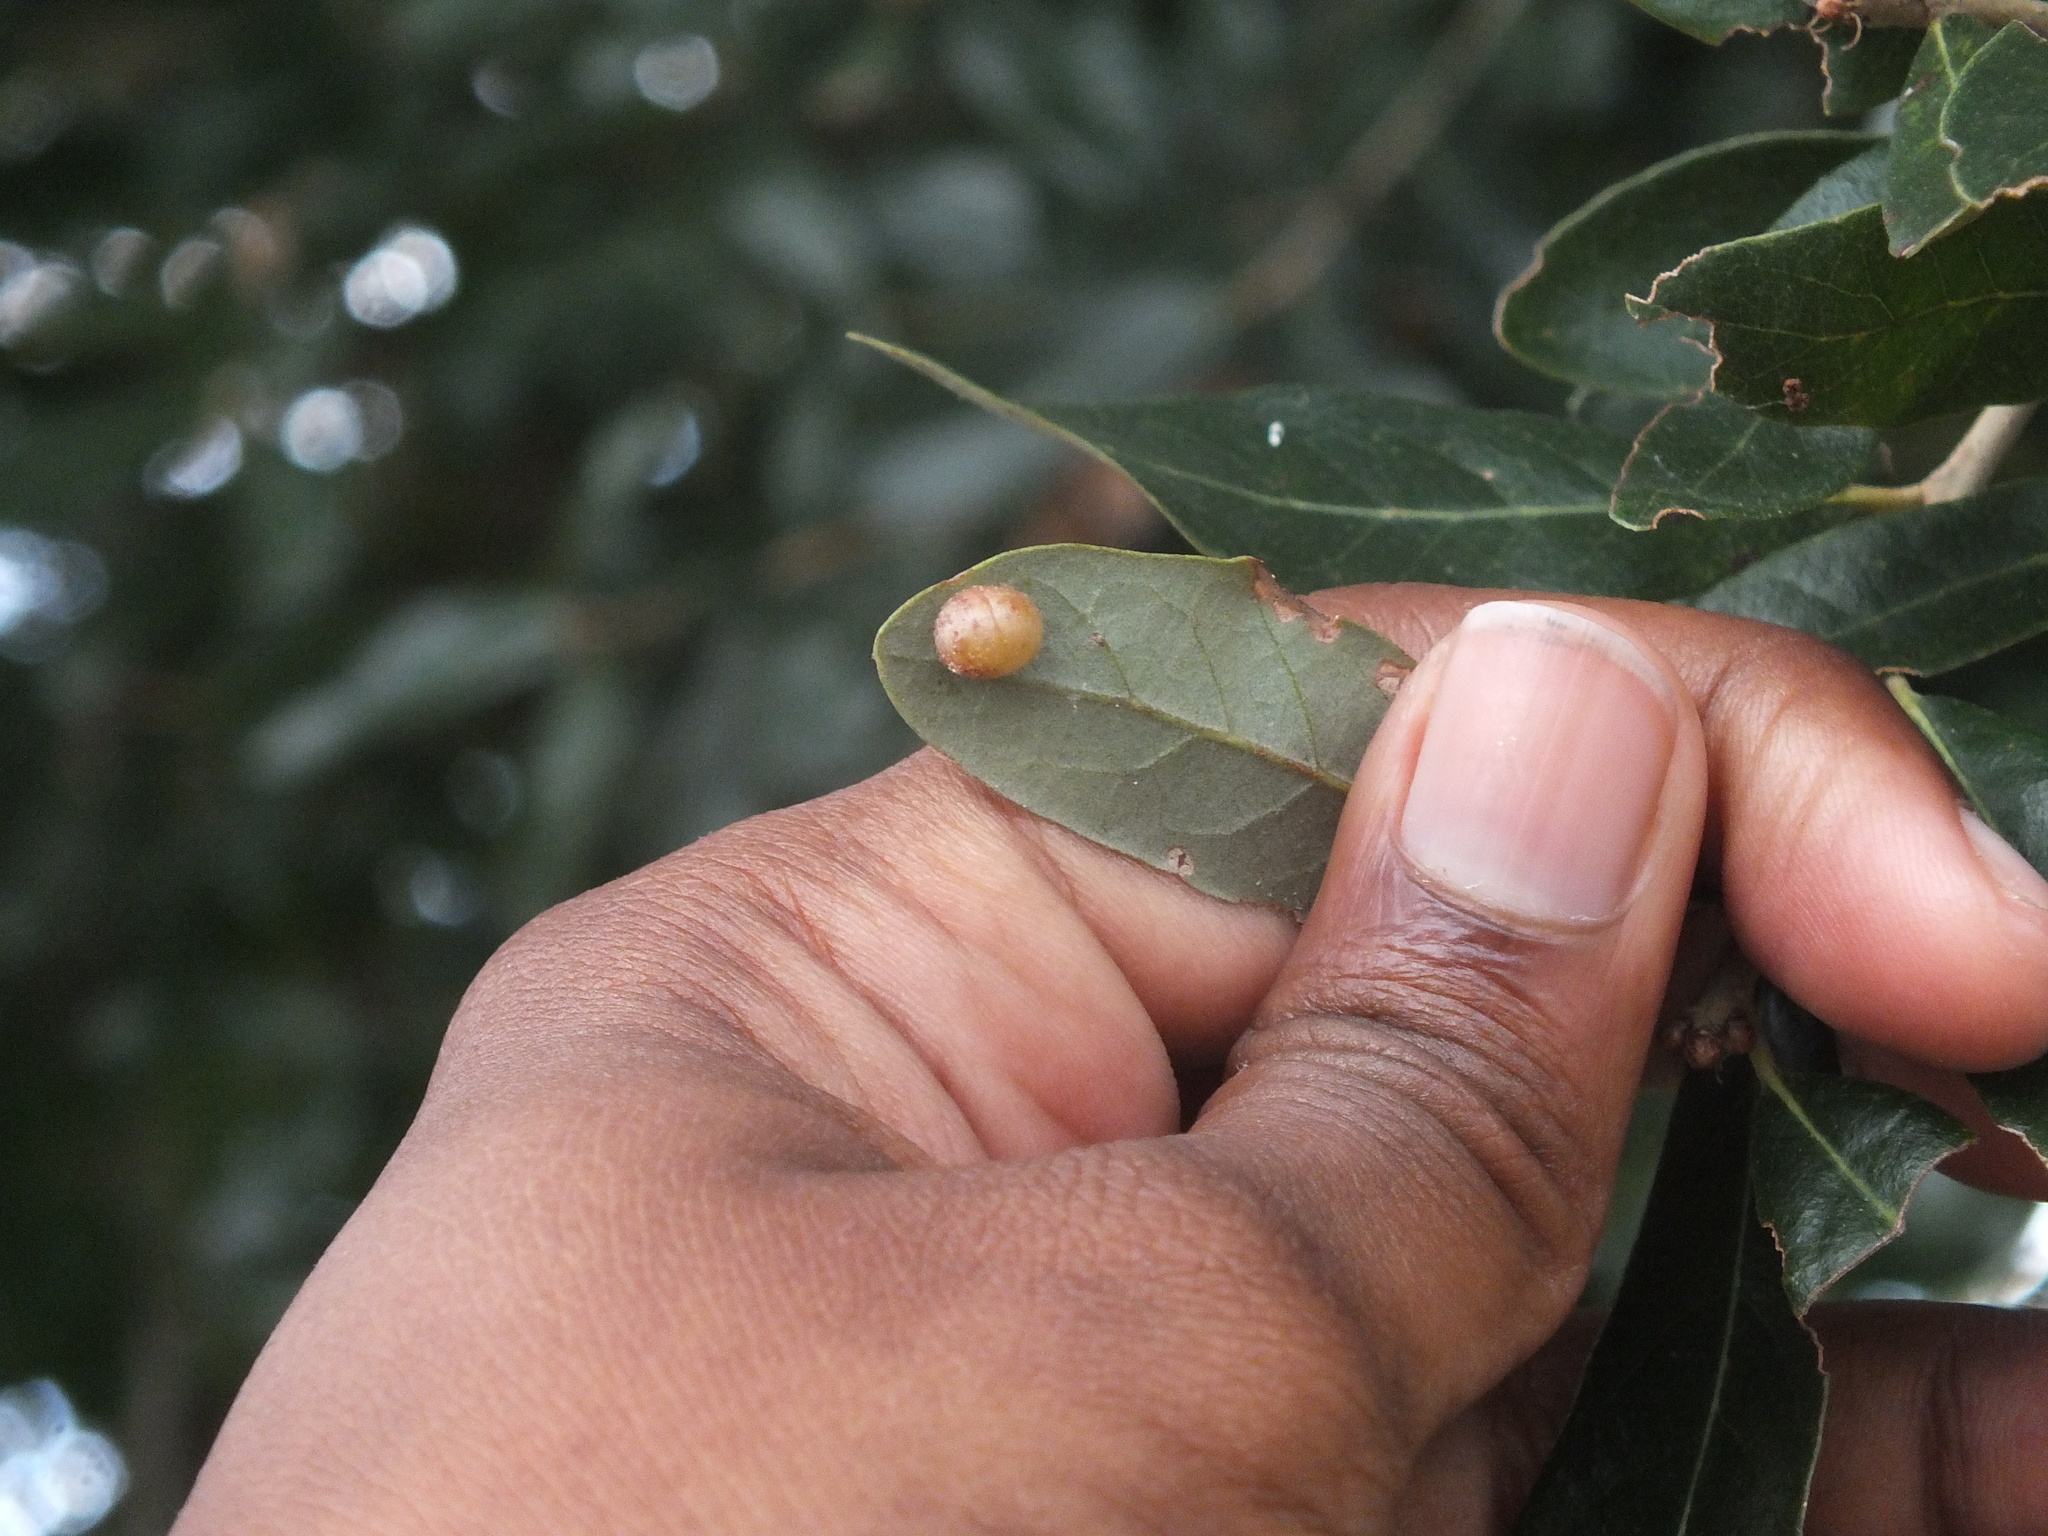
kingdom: Animalia
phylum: Arthropoda
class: Insecta
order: Hymenoptera
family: Cynipidae
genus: Belonocnema
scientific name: Belonocnema treatae
